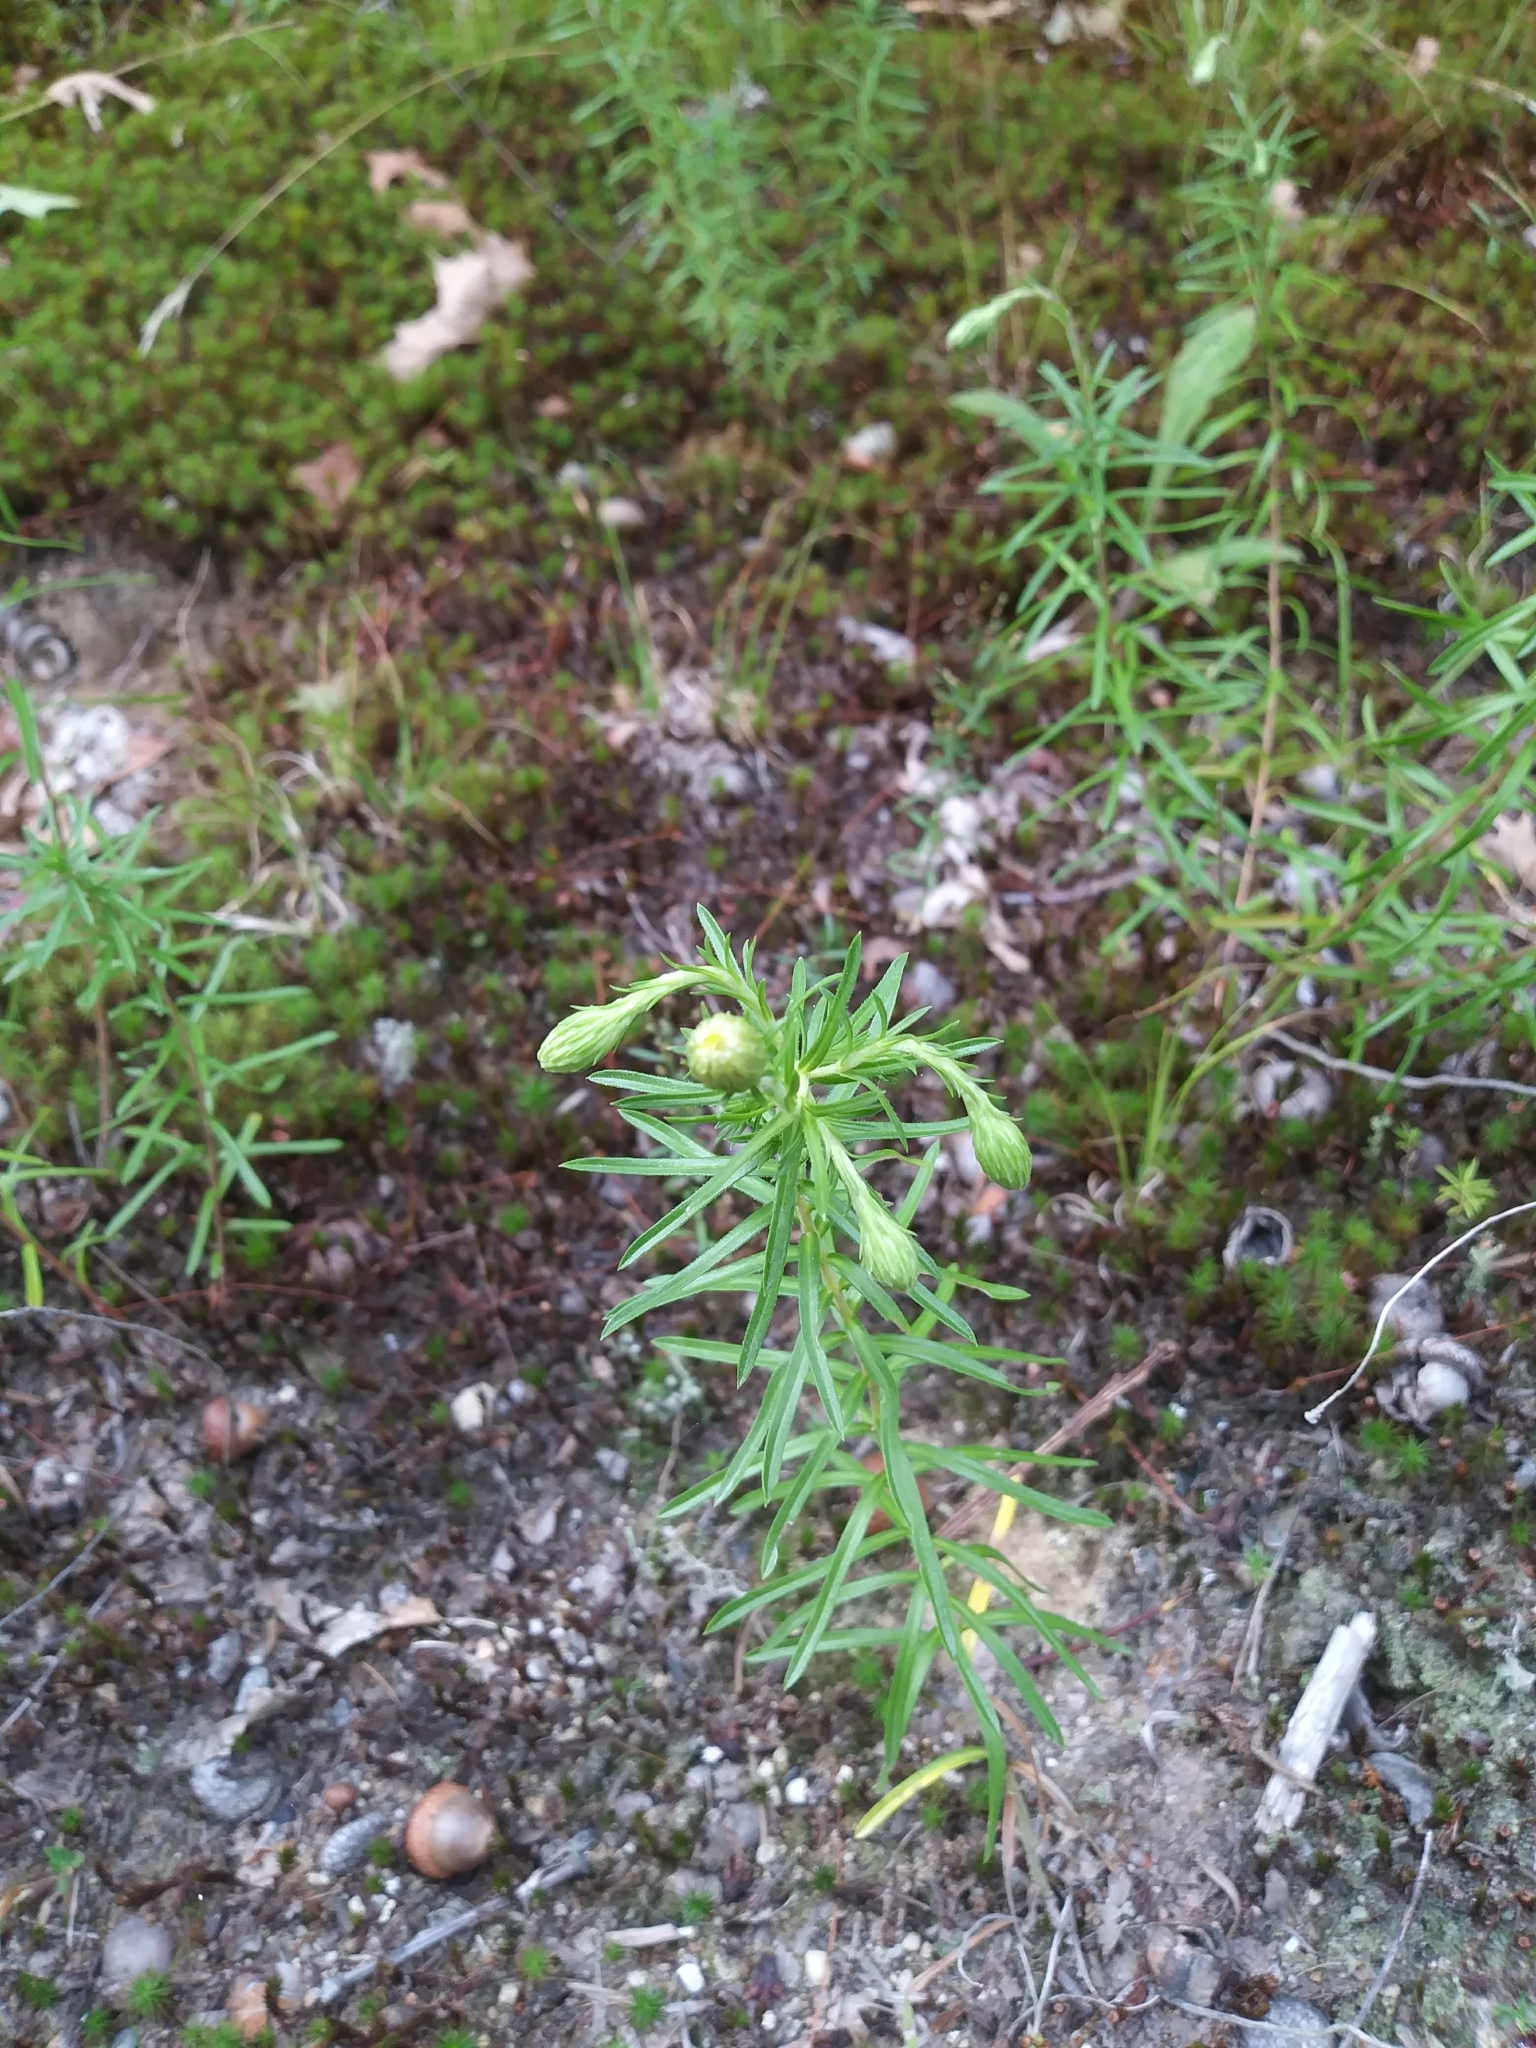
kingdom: Plantae
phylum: Tracheophyta
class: Magnoliopsida
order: Asterales
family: Asteraceae
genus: Ionactis
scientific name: Ionactis linariifolia
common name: Flax-leaf aster
